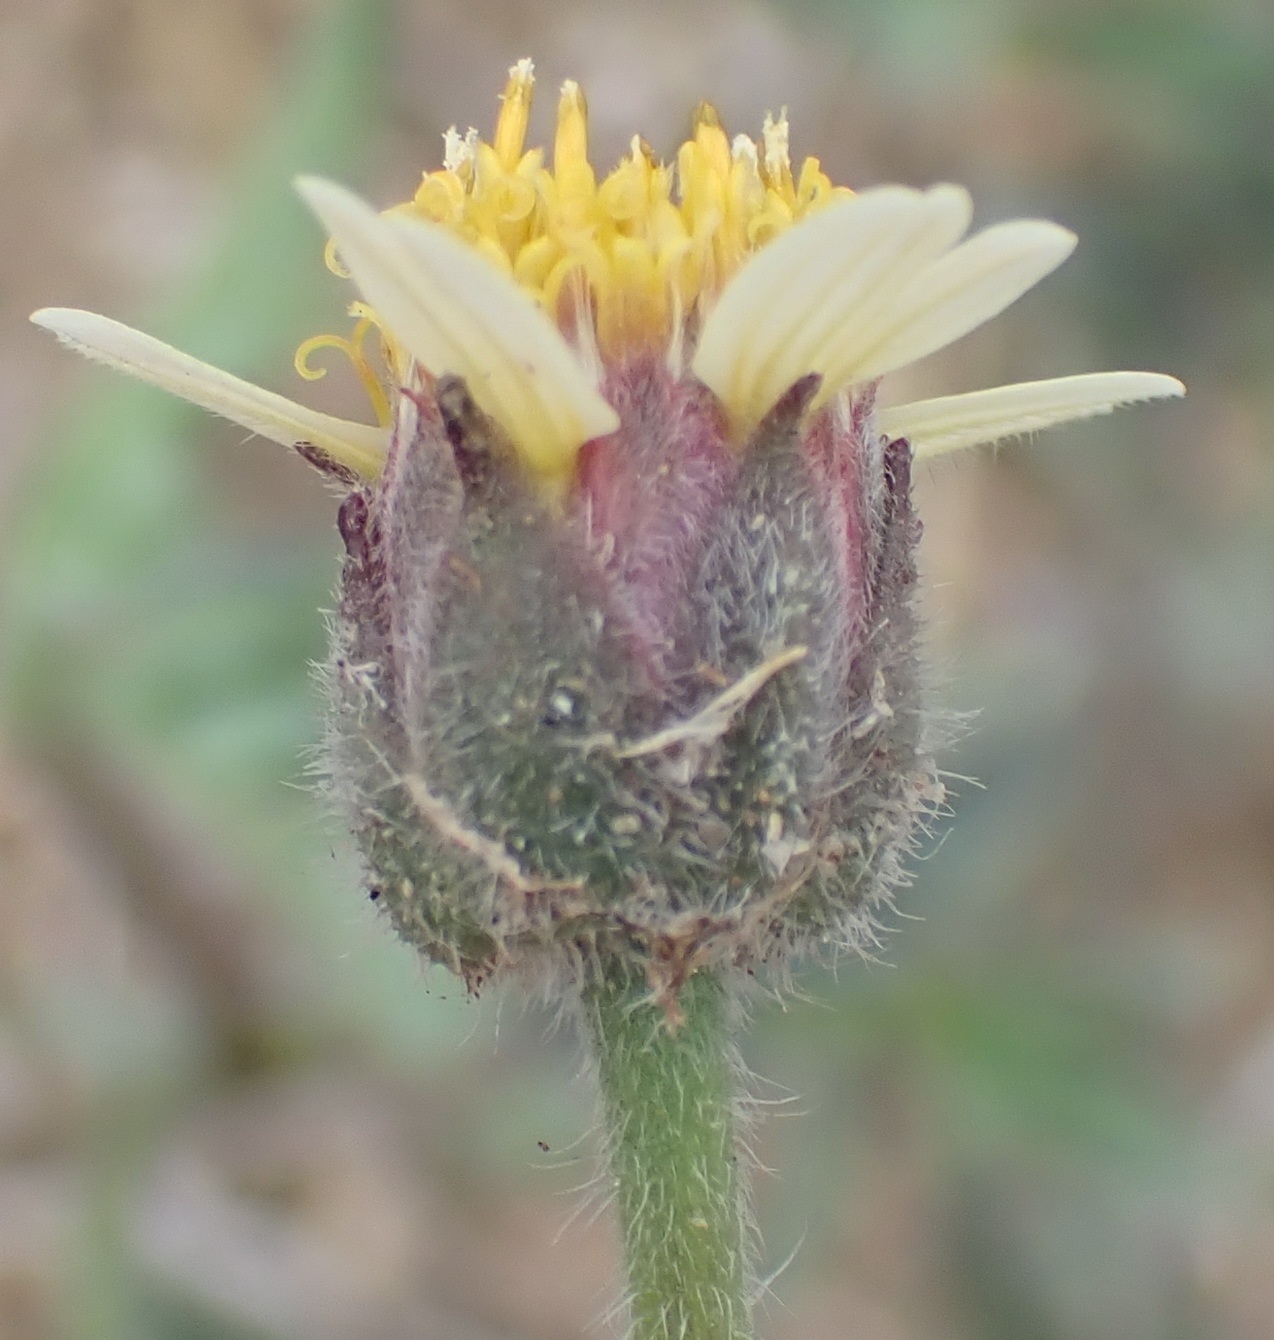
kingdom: Plantae
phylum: Tracheophyta
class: Magnoliopsida
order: Asterales
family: Asteraceae
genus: Tridax
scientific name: Tridax procumbens
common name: Coatbuttons
